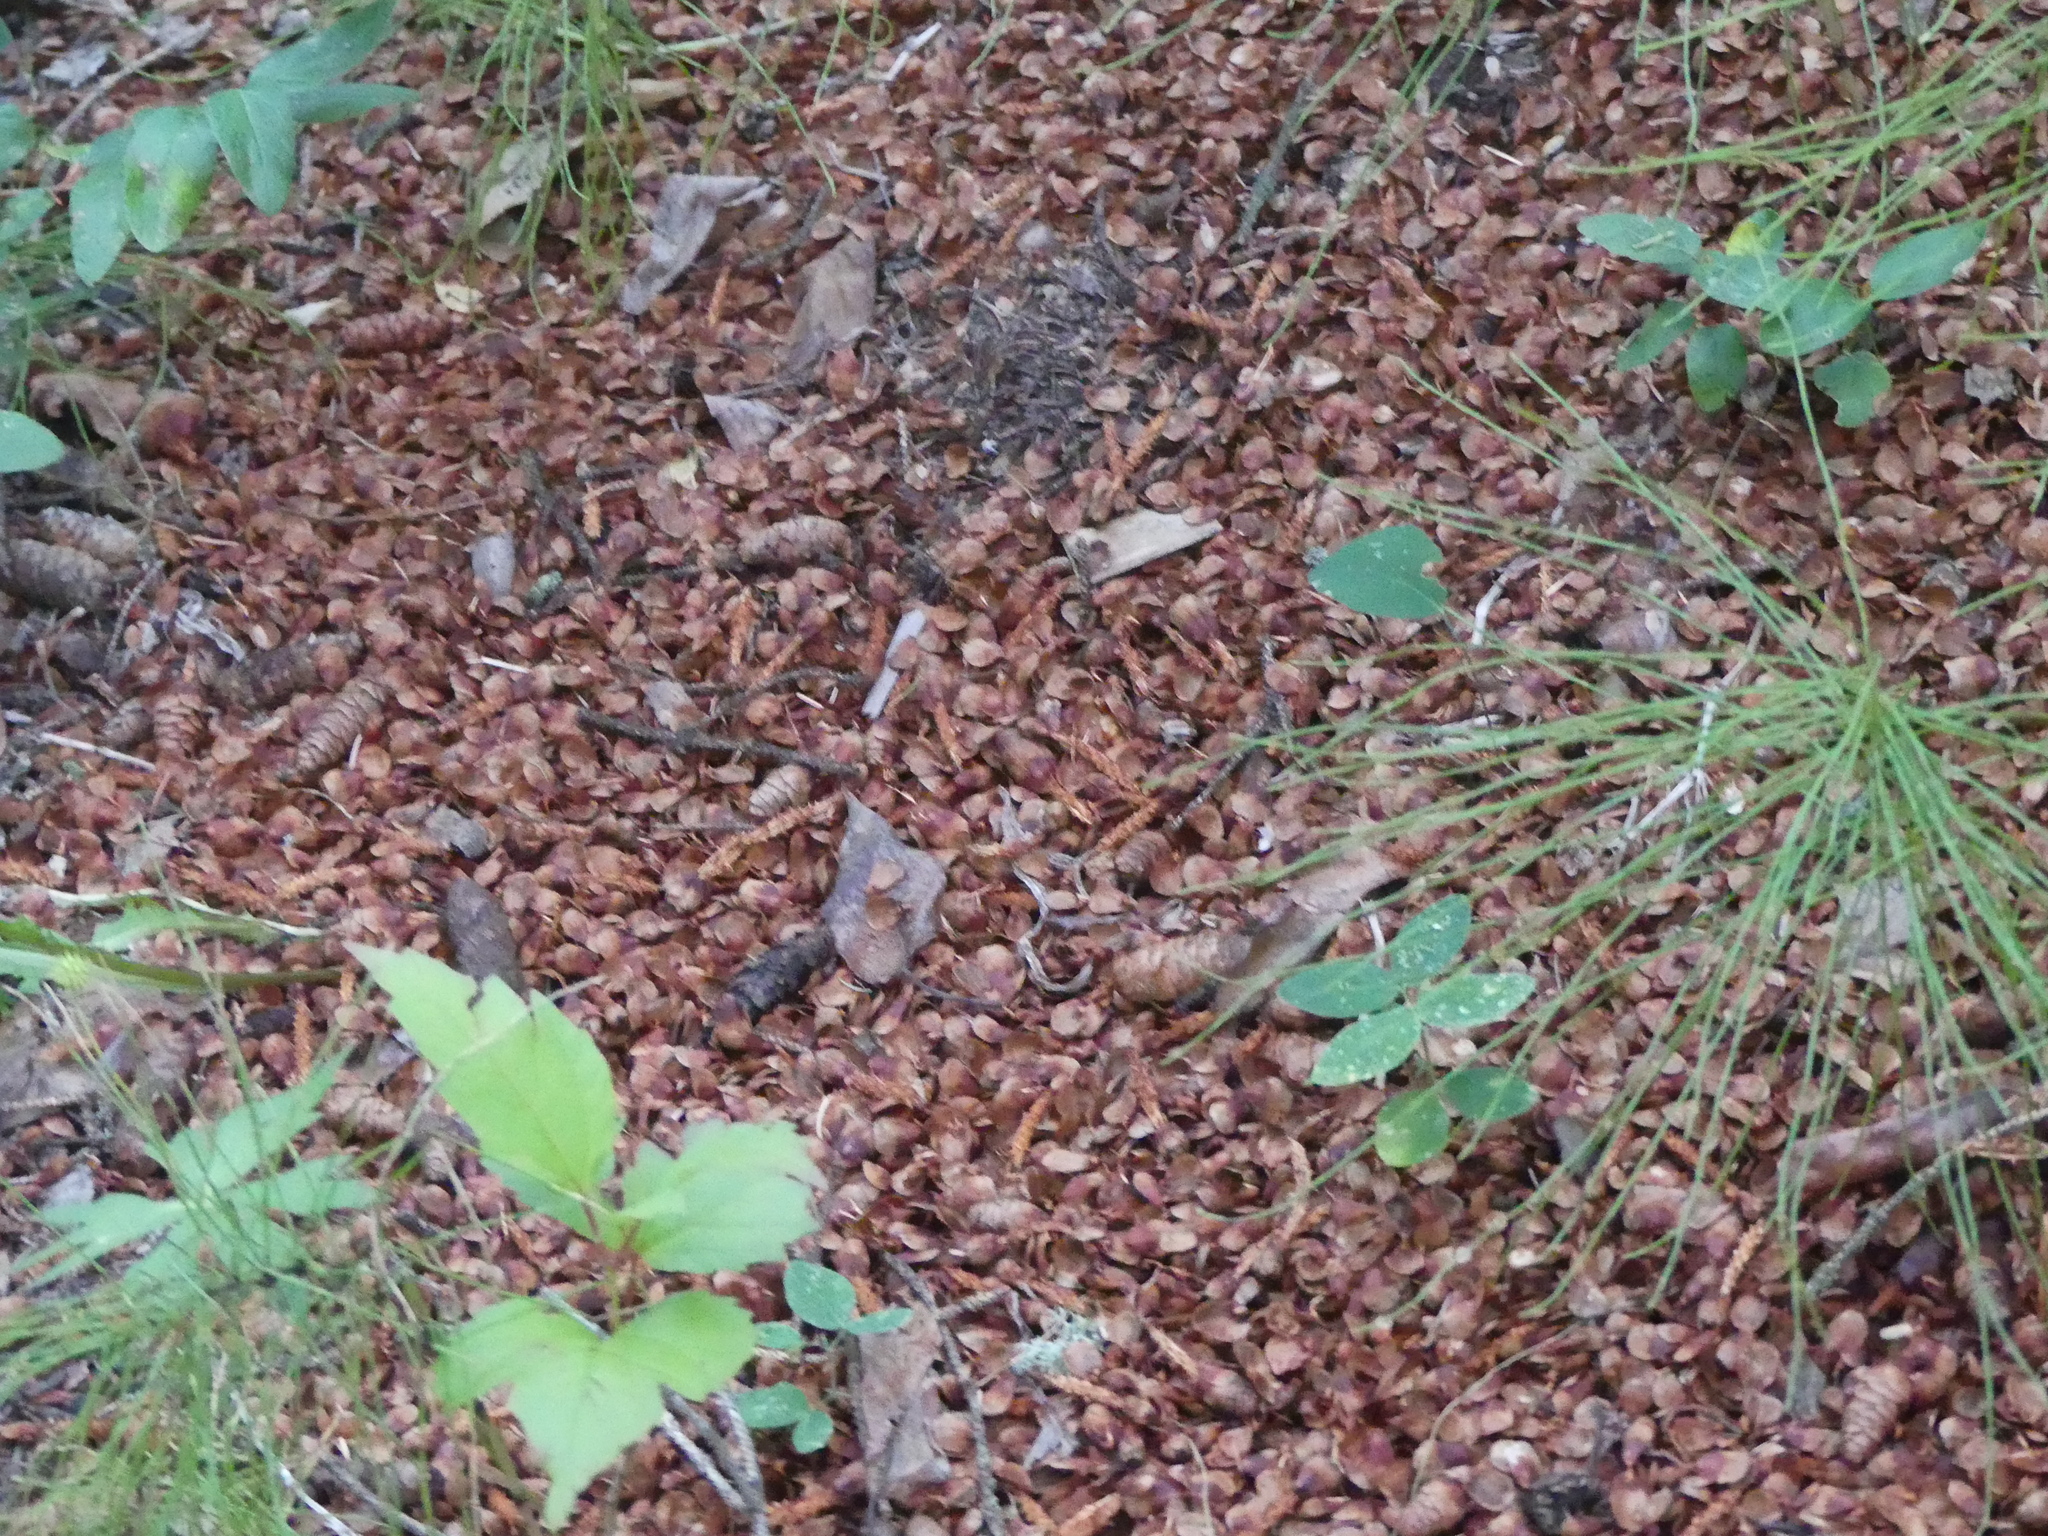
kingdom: Animalia
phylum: Chordata
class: Mammalia
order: Rodentia
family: Sciuridae
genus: Tamiasciurus
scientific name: Tamiasciurus hudsonicus
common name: Red squirrel
